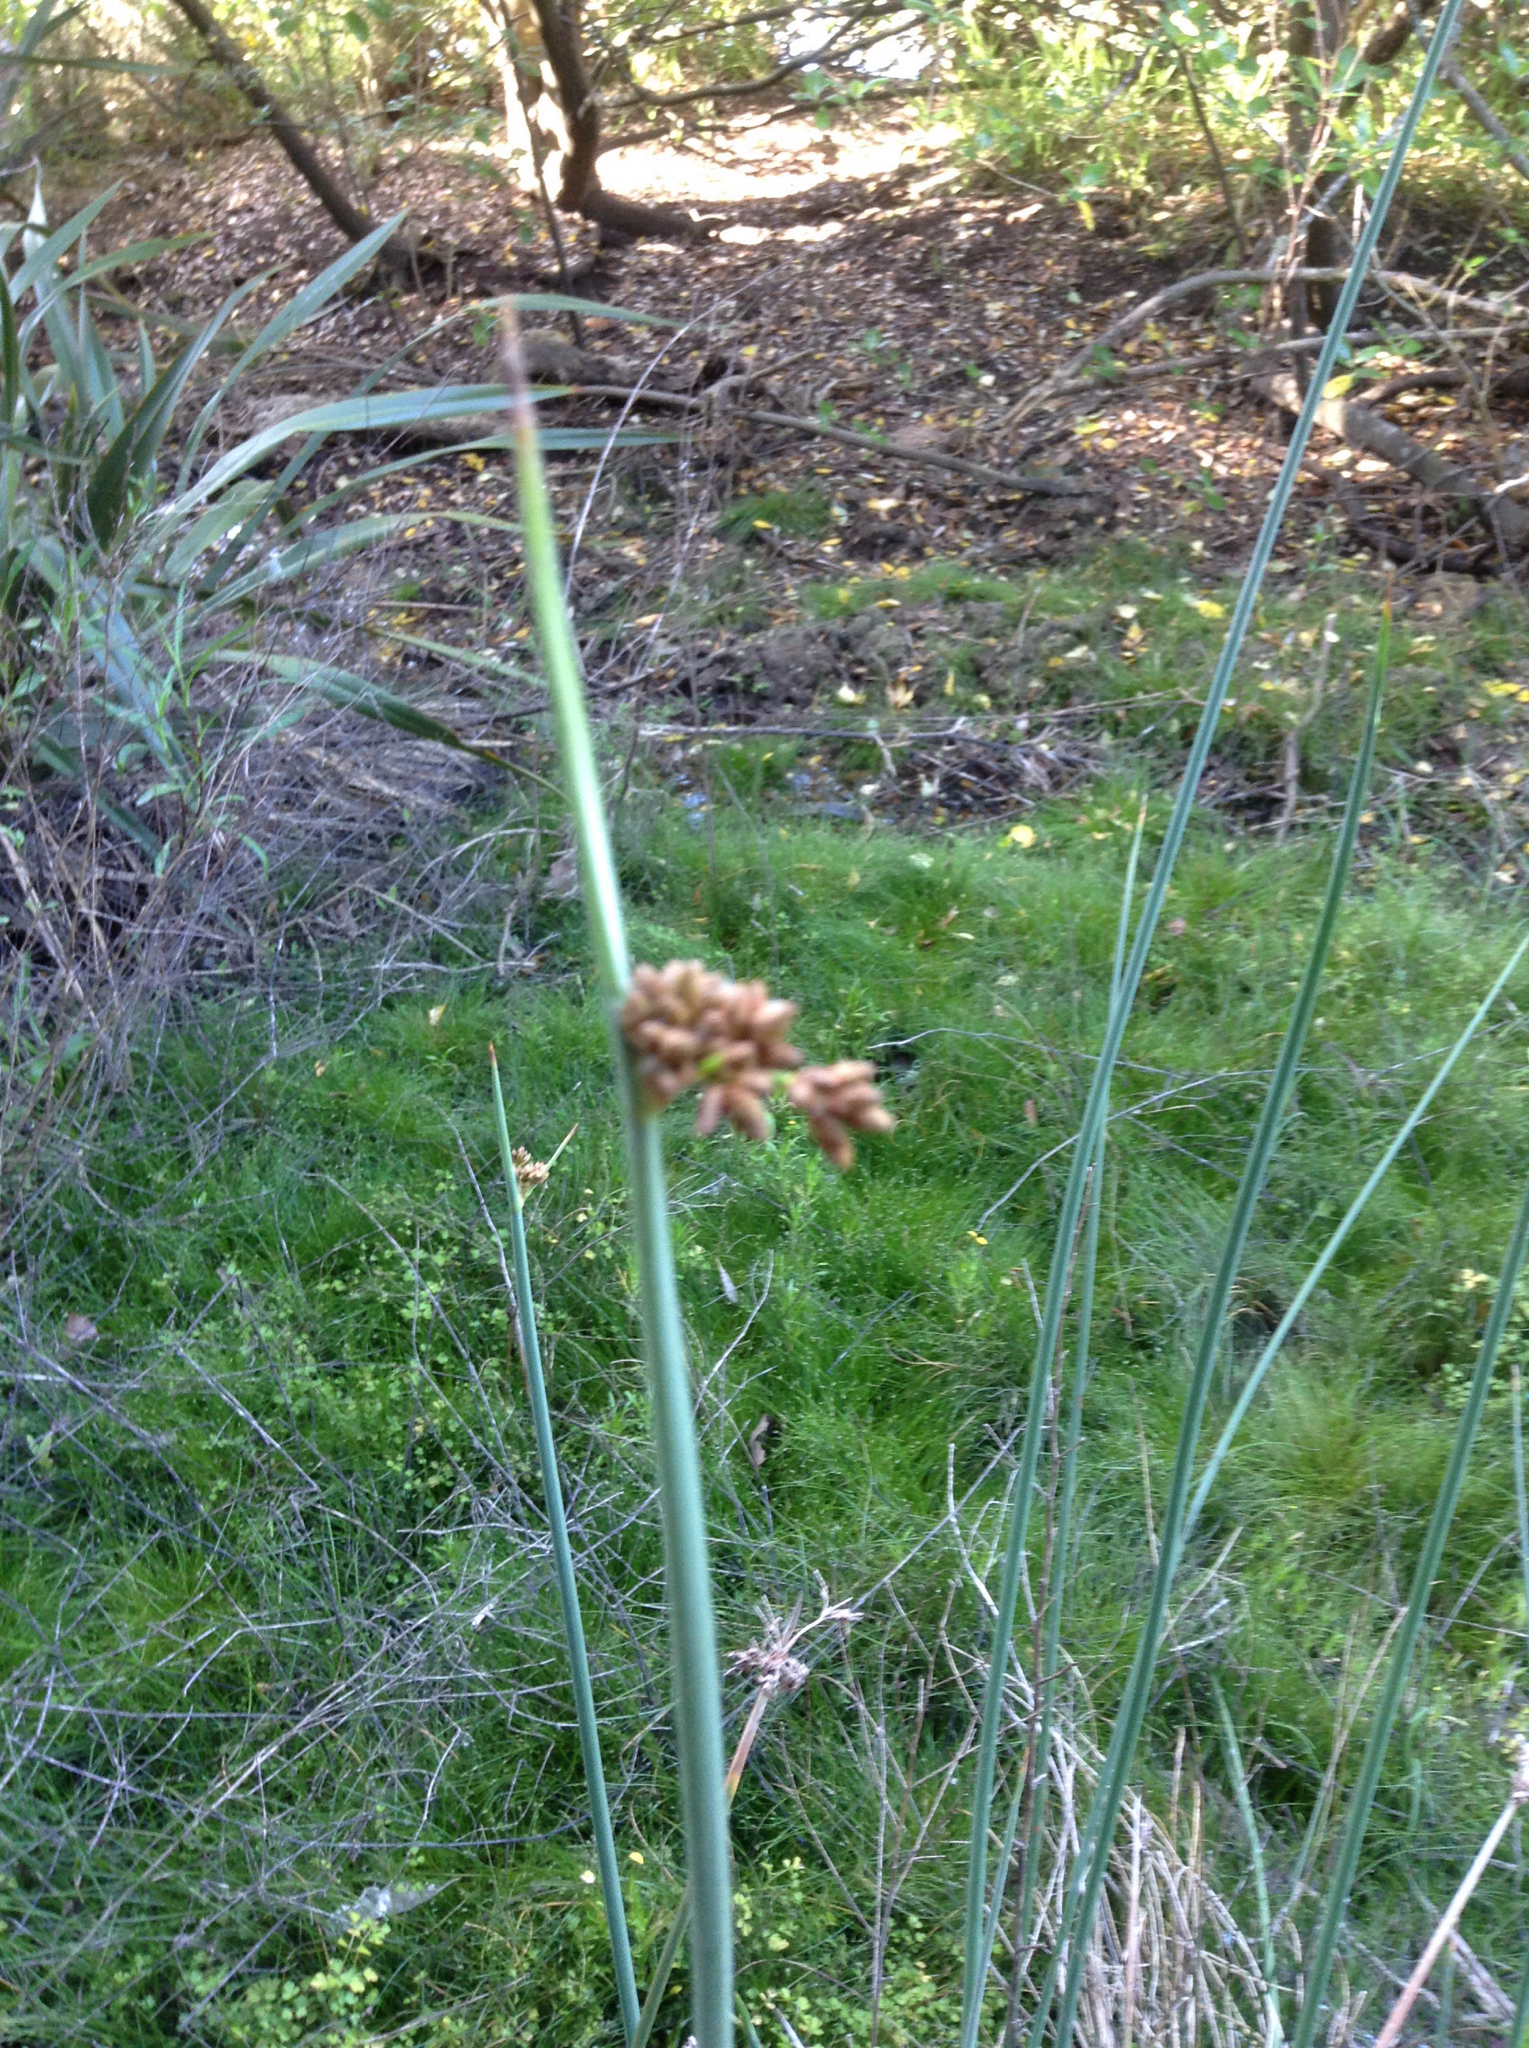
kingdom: Plantae
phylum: Tracheophyta
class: Liliopsida
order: Poales
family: Cyperaceae
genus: Schoenoplectus
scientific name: Schoenoplectus tabernaemontani
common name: Grey club-rush
